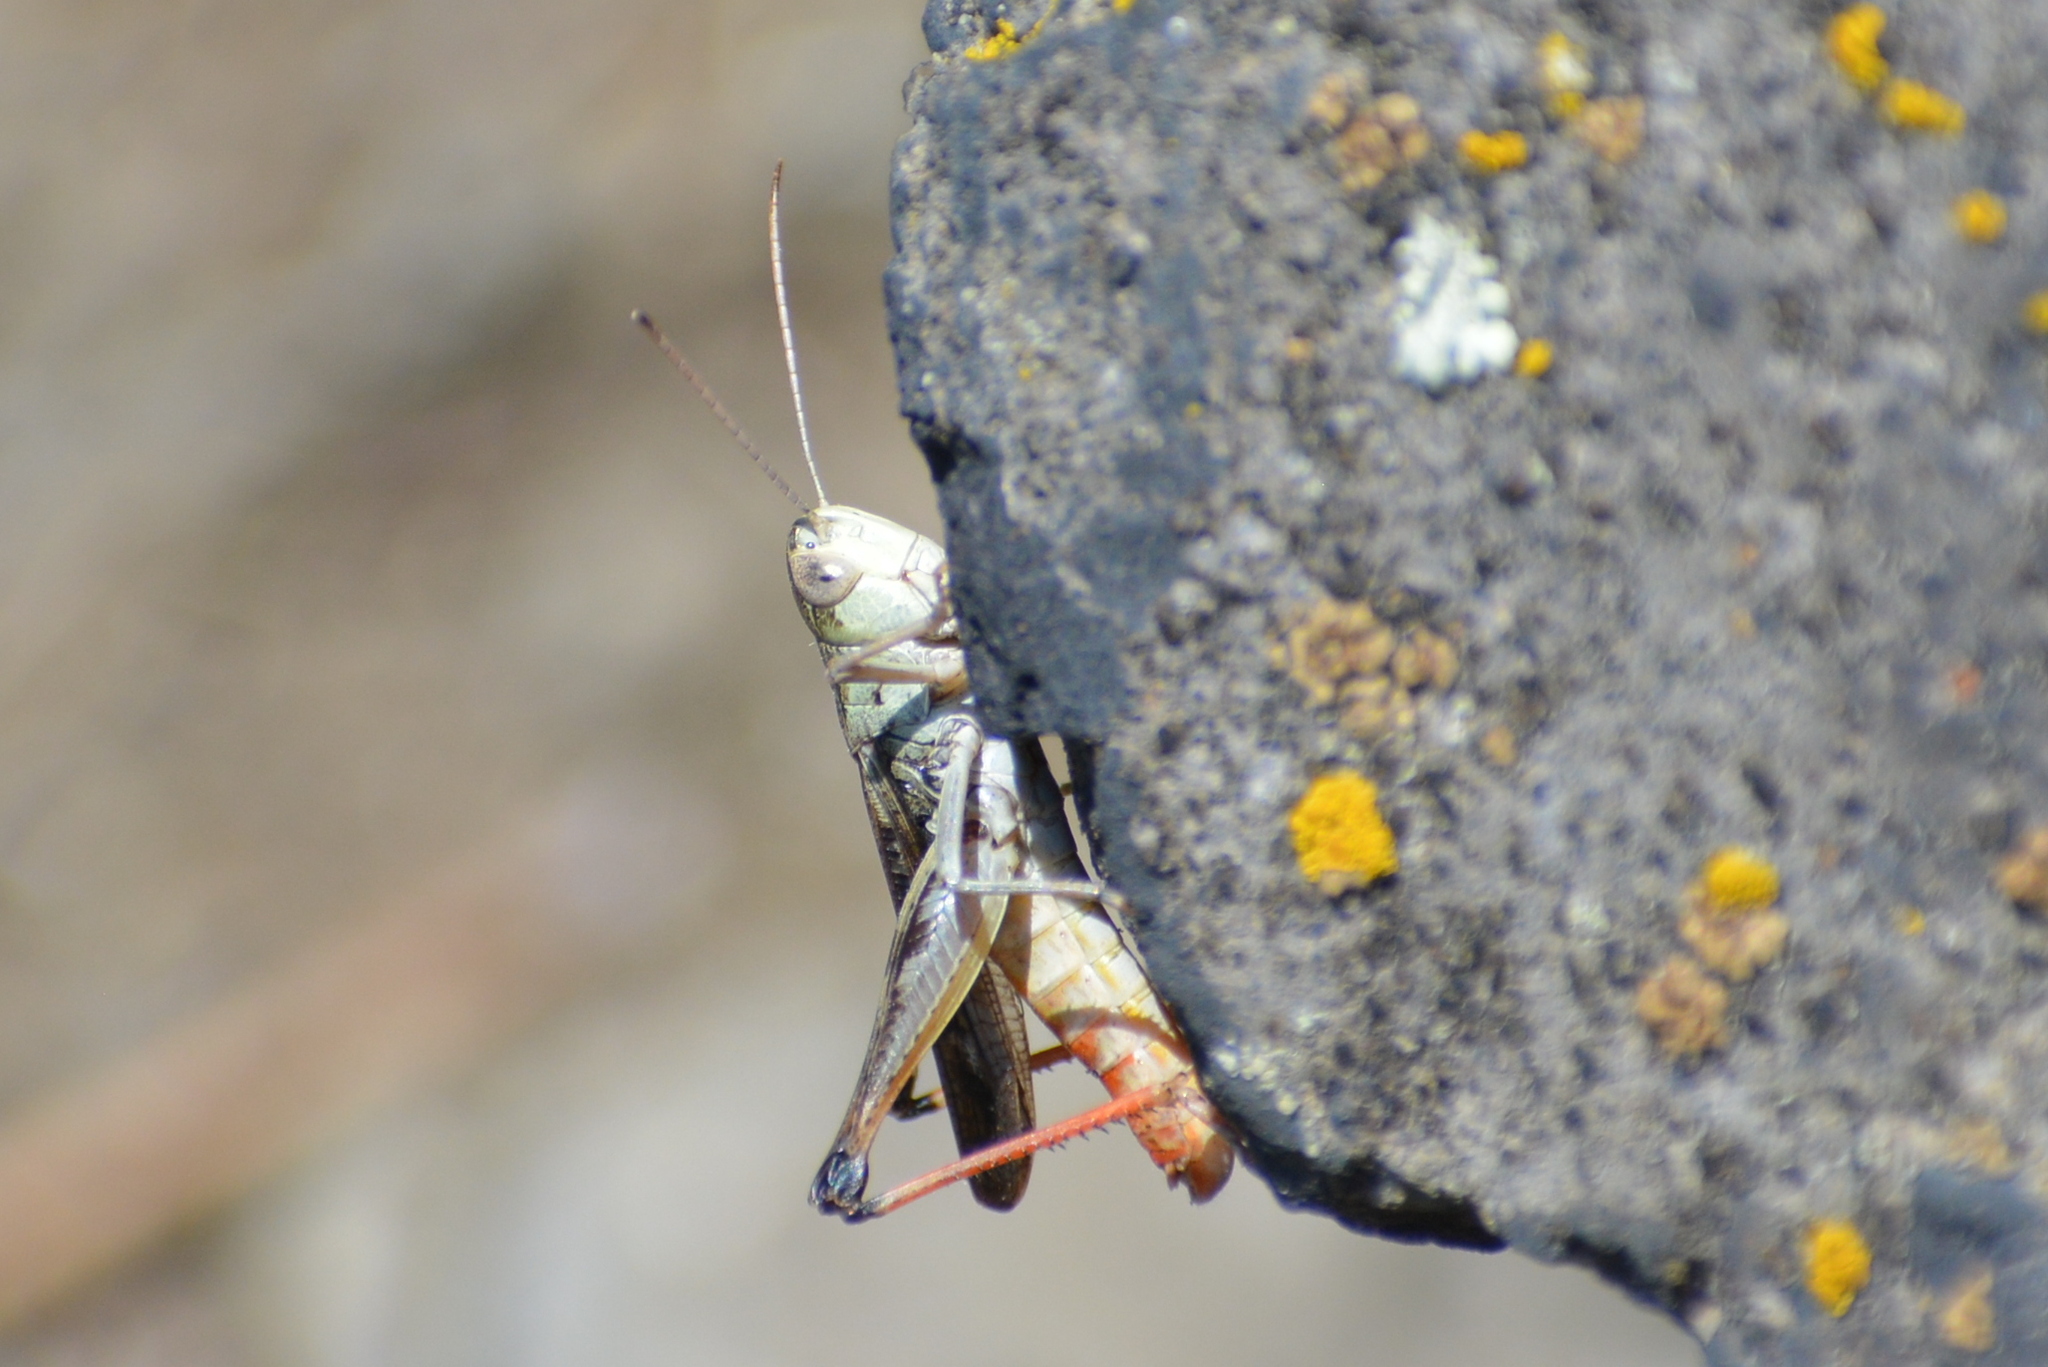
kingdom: Animalia
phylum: Arthropoda
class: Insecta
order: Orthoptera
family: Acrididae
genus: Stenobothrus
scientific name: Stenobothrus eurasius
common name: Eurasian toothed grasshopper
